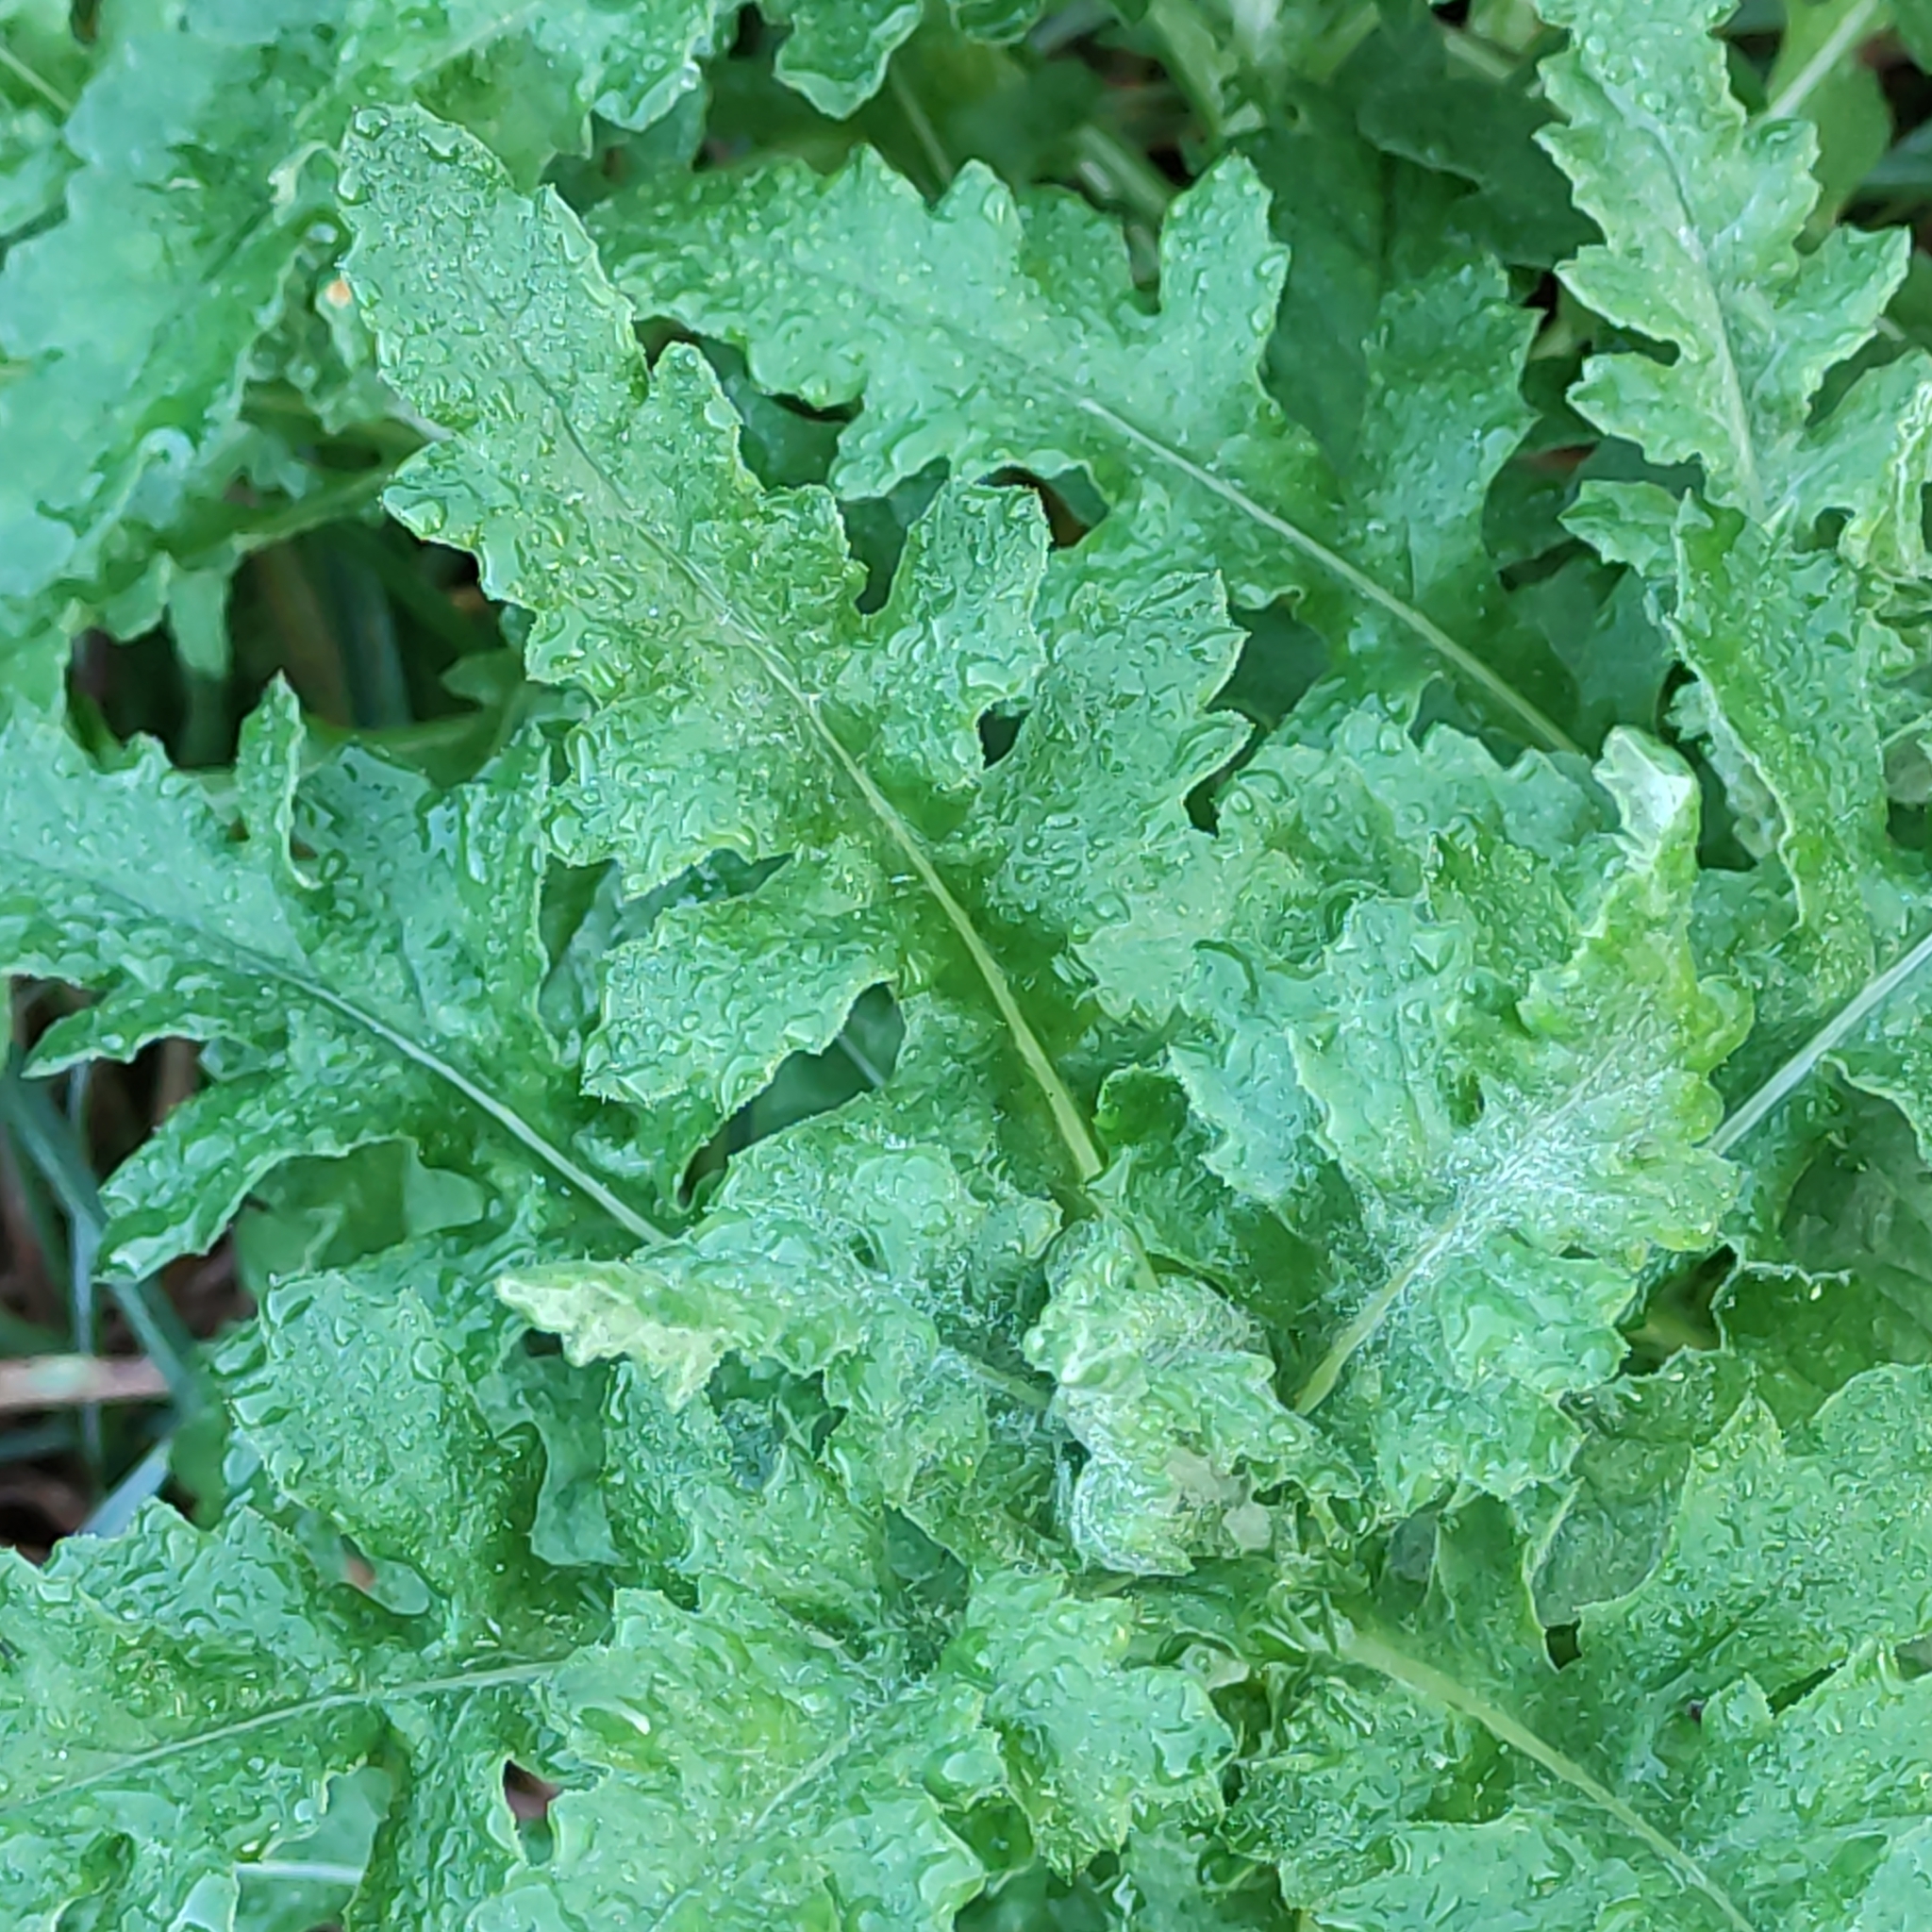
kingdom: Plantae
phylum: Tracheophyta
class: Magnoliopsida
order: Asterales
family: Asteraceae
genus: Senecio
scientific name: Senecio glomeratus
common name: Cutleaf burnweed
